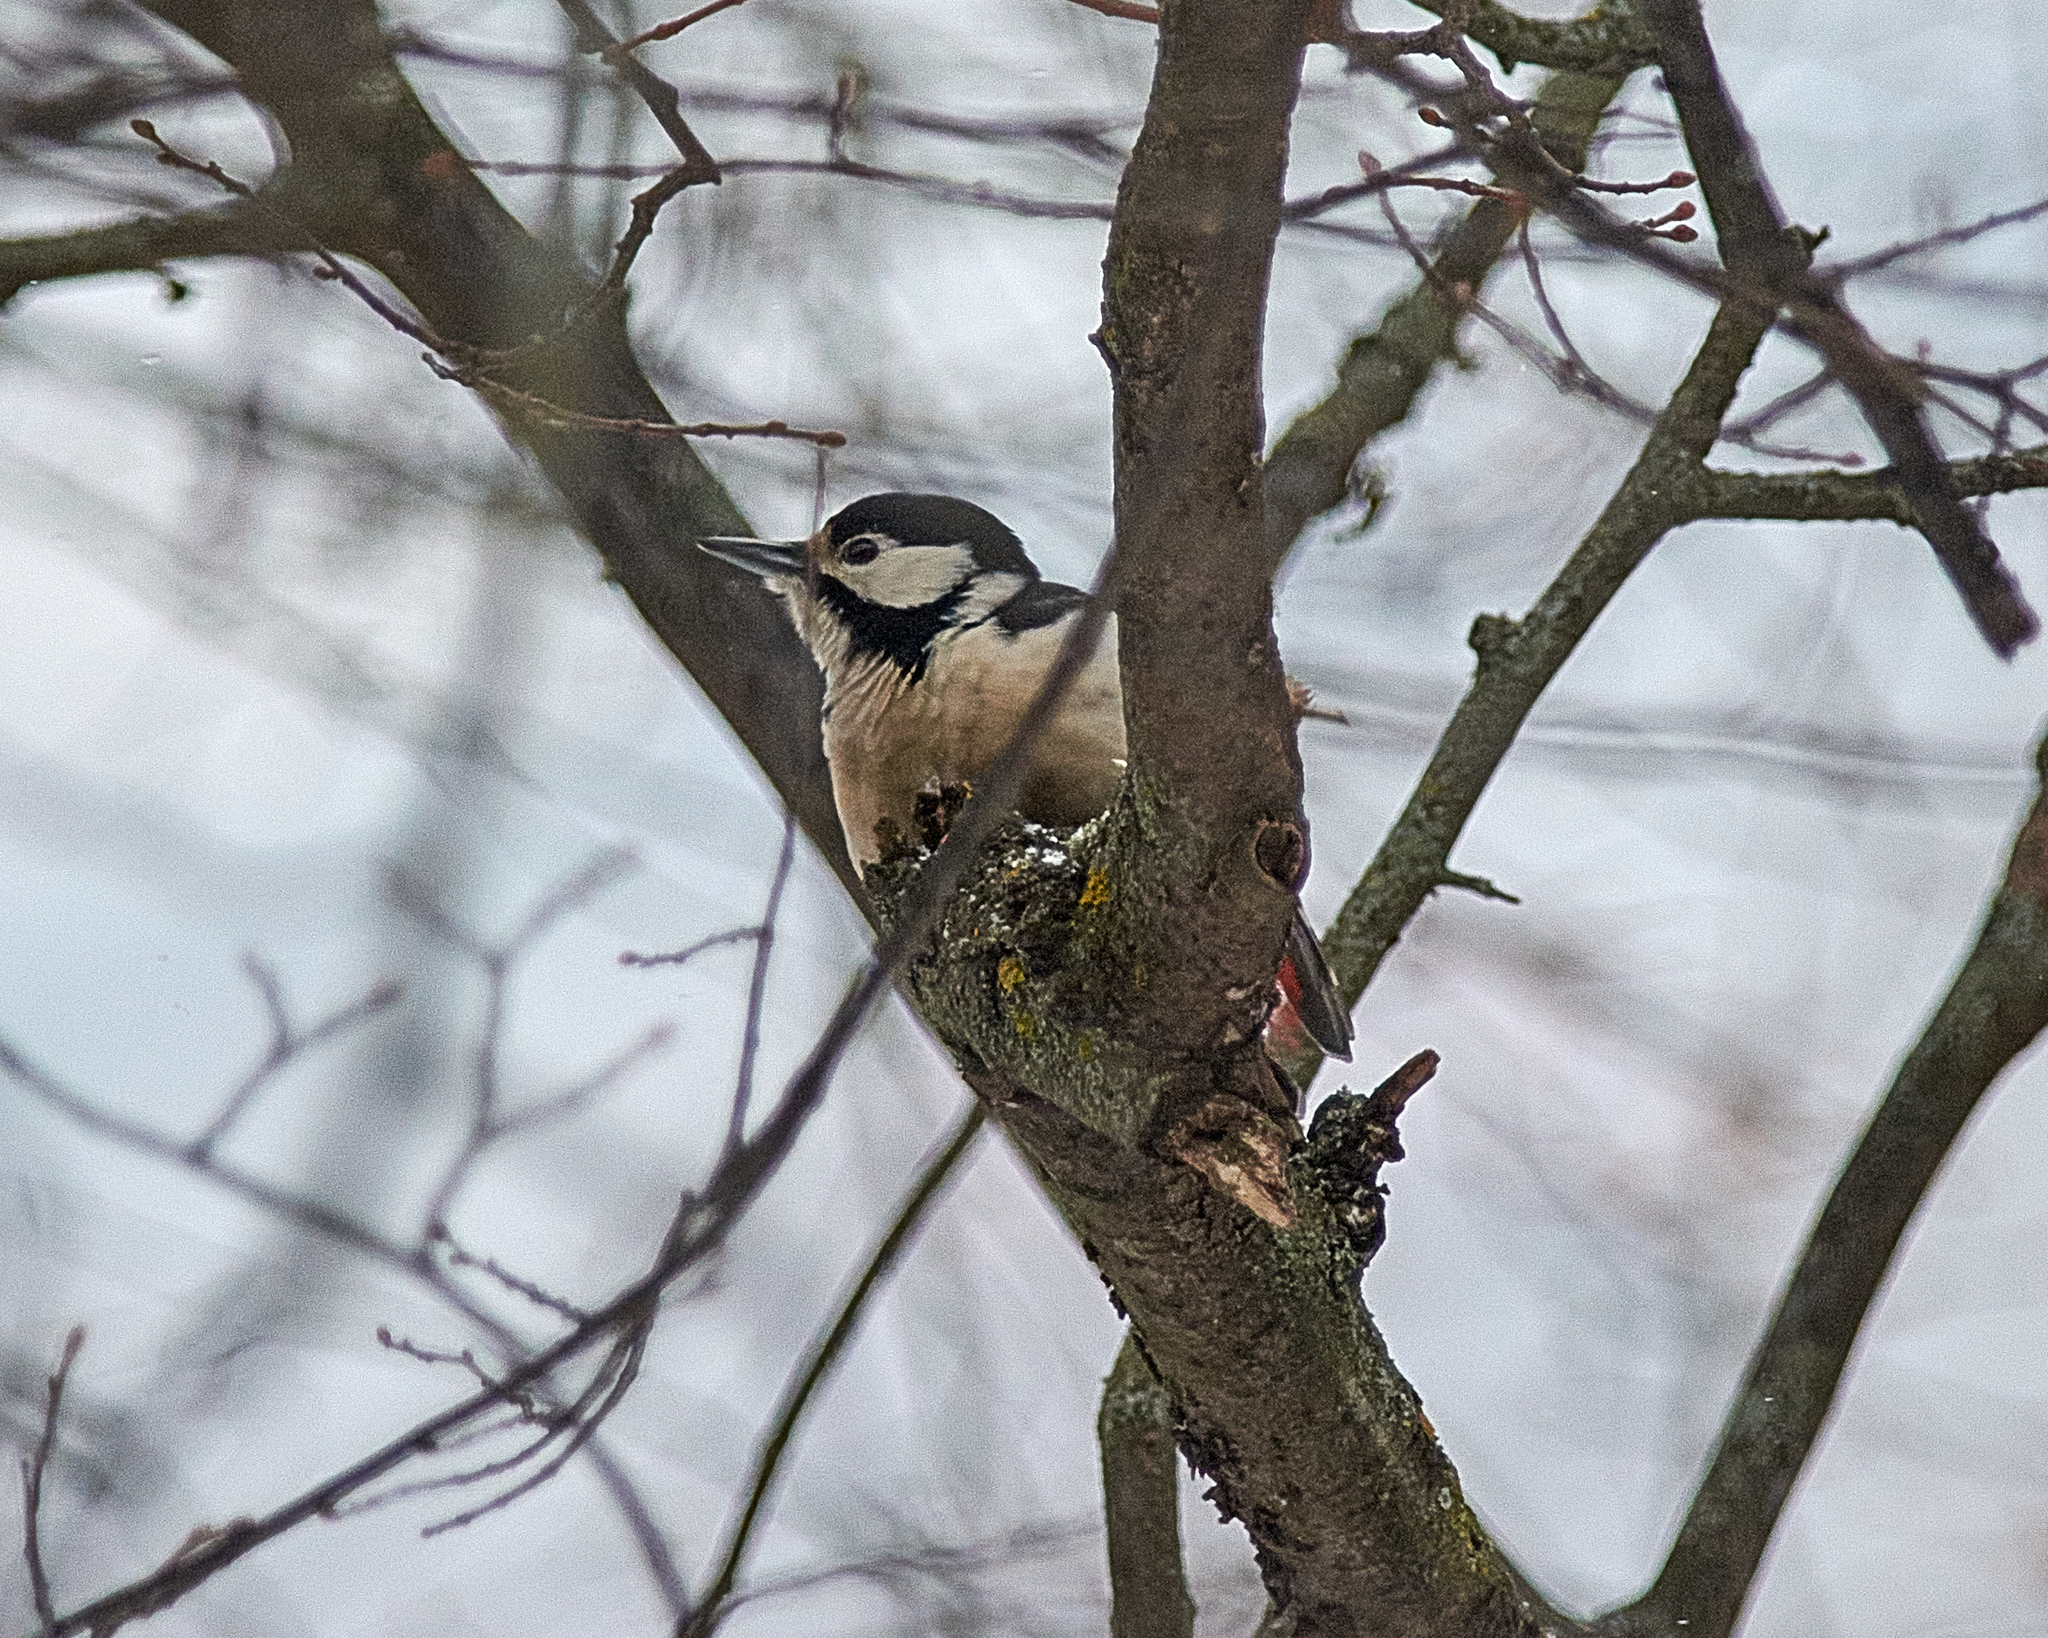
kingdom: Animalia
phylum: Chordata
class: Aves
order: Piciformes
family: Picidae
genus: Dendrocopos
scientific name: Dendrocopos major
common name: Great spotted woodpecker
